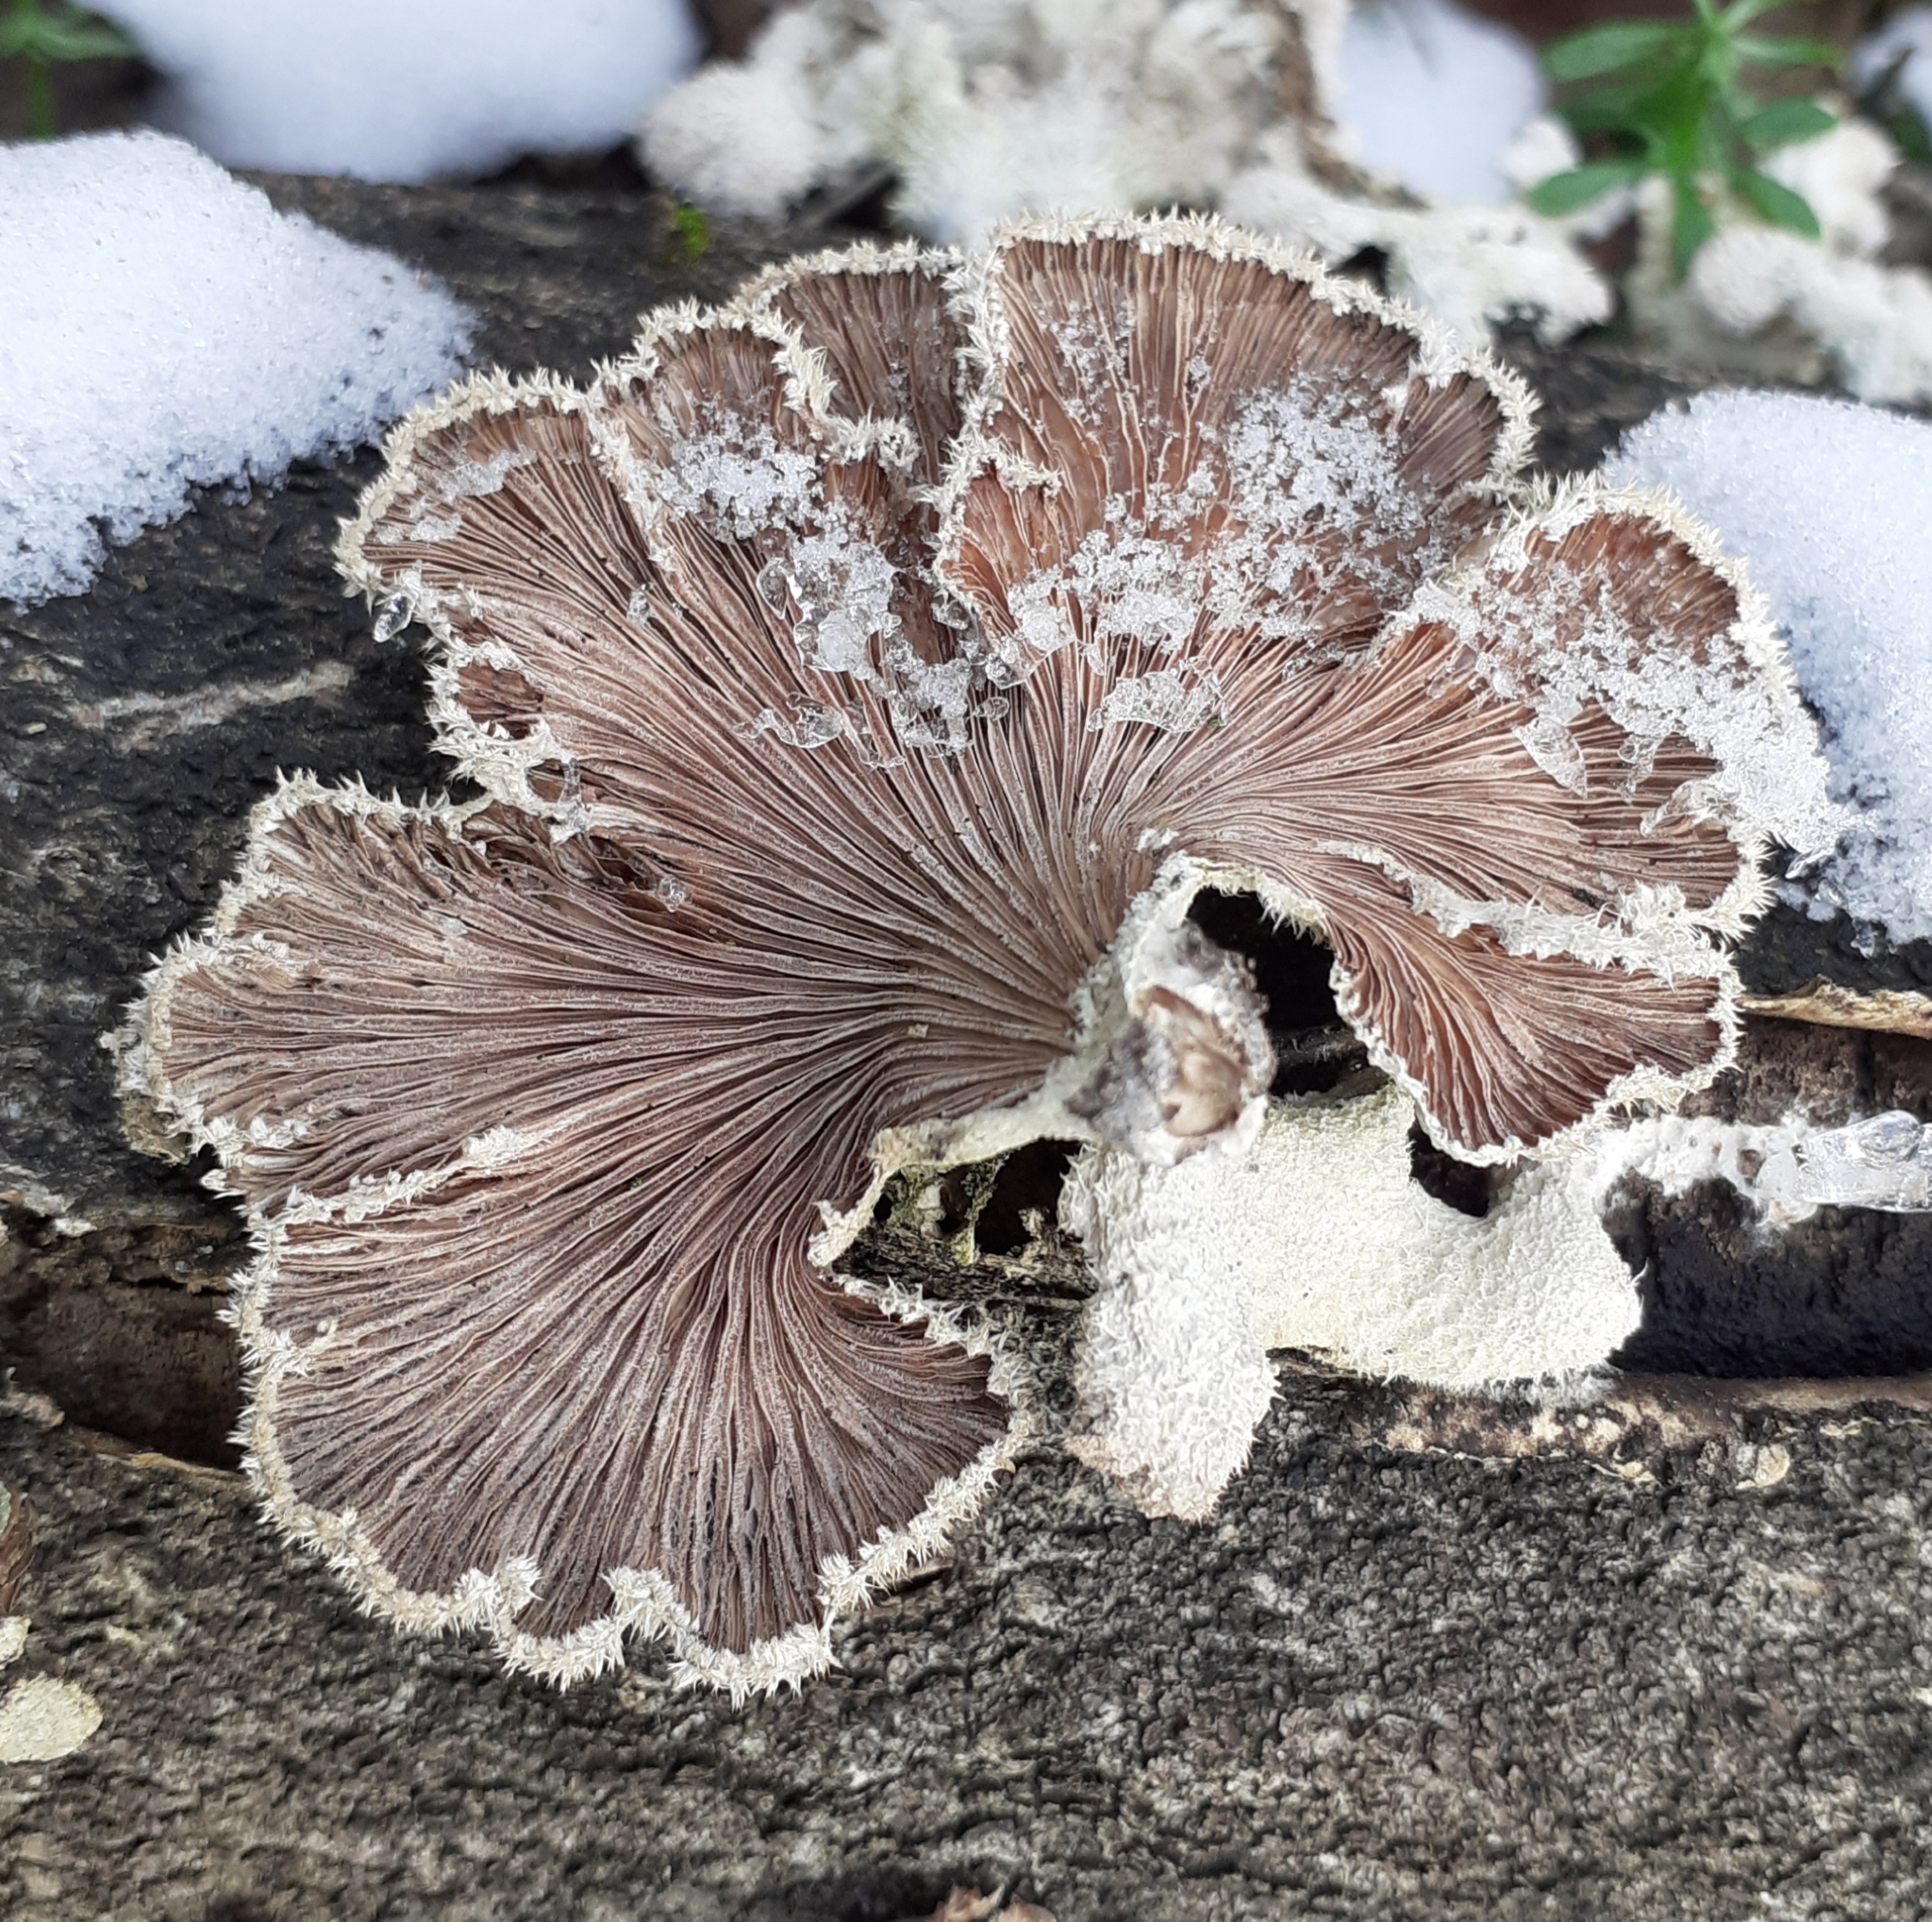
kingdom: Fungi
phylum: Basidiomycota
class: Agaricomycetes
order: Agaricales
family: Schizophyllaceae
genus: Schizophyllum
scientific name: Schizophyllum commune
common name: Common porecrust
